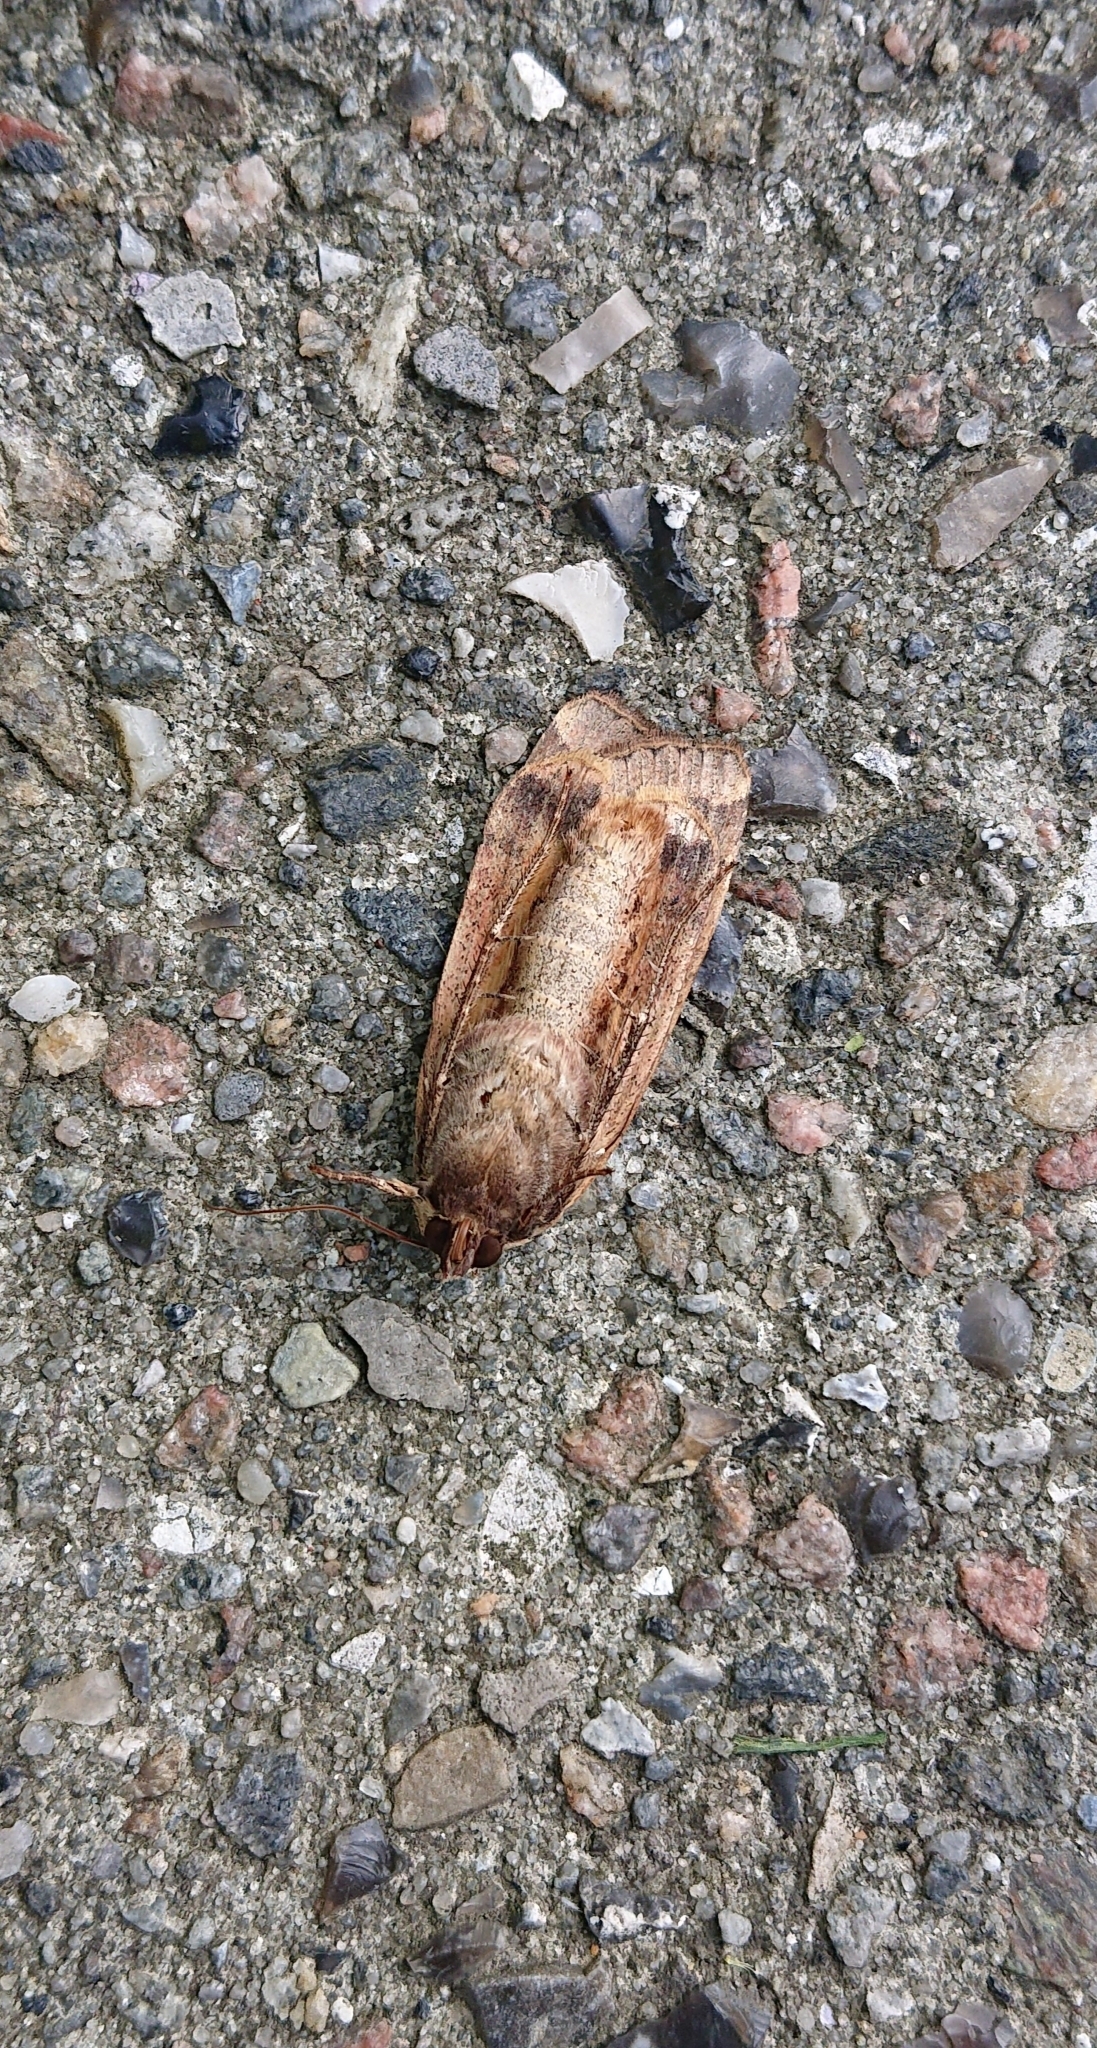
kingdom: Animalia
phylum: Arthropoda
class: Insecta
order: Lepidoptera
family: Noctuidae
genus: Noctua
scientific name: Noctua pronuba
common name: Large yellow underwing
